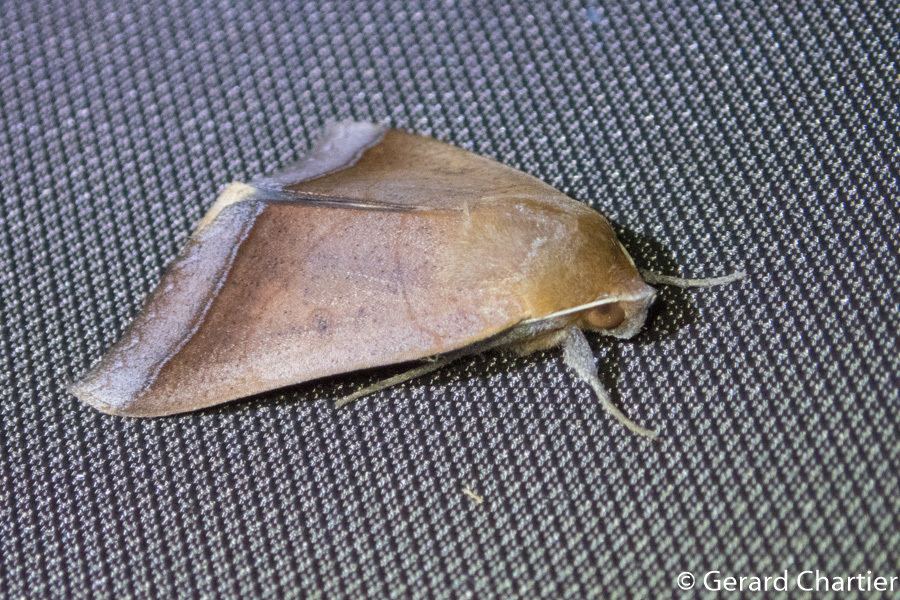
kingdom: Animalia
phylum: Arthropoda
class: Insecta
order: Lepidoptera
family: Erebidae
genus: Ophiusa
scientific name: Ophiusa trapezium
